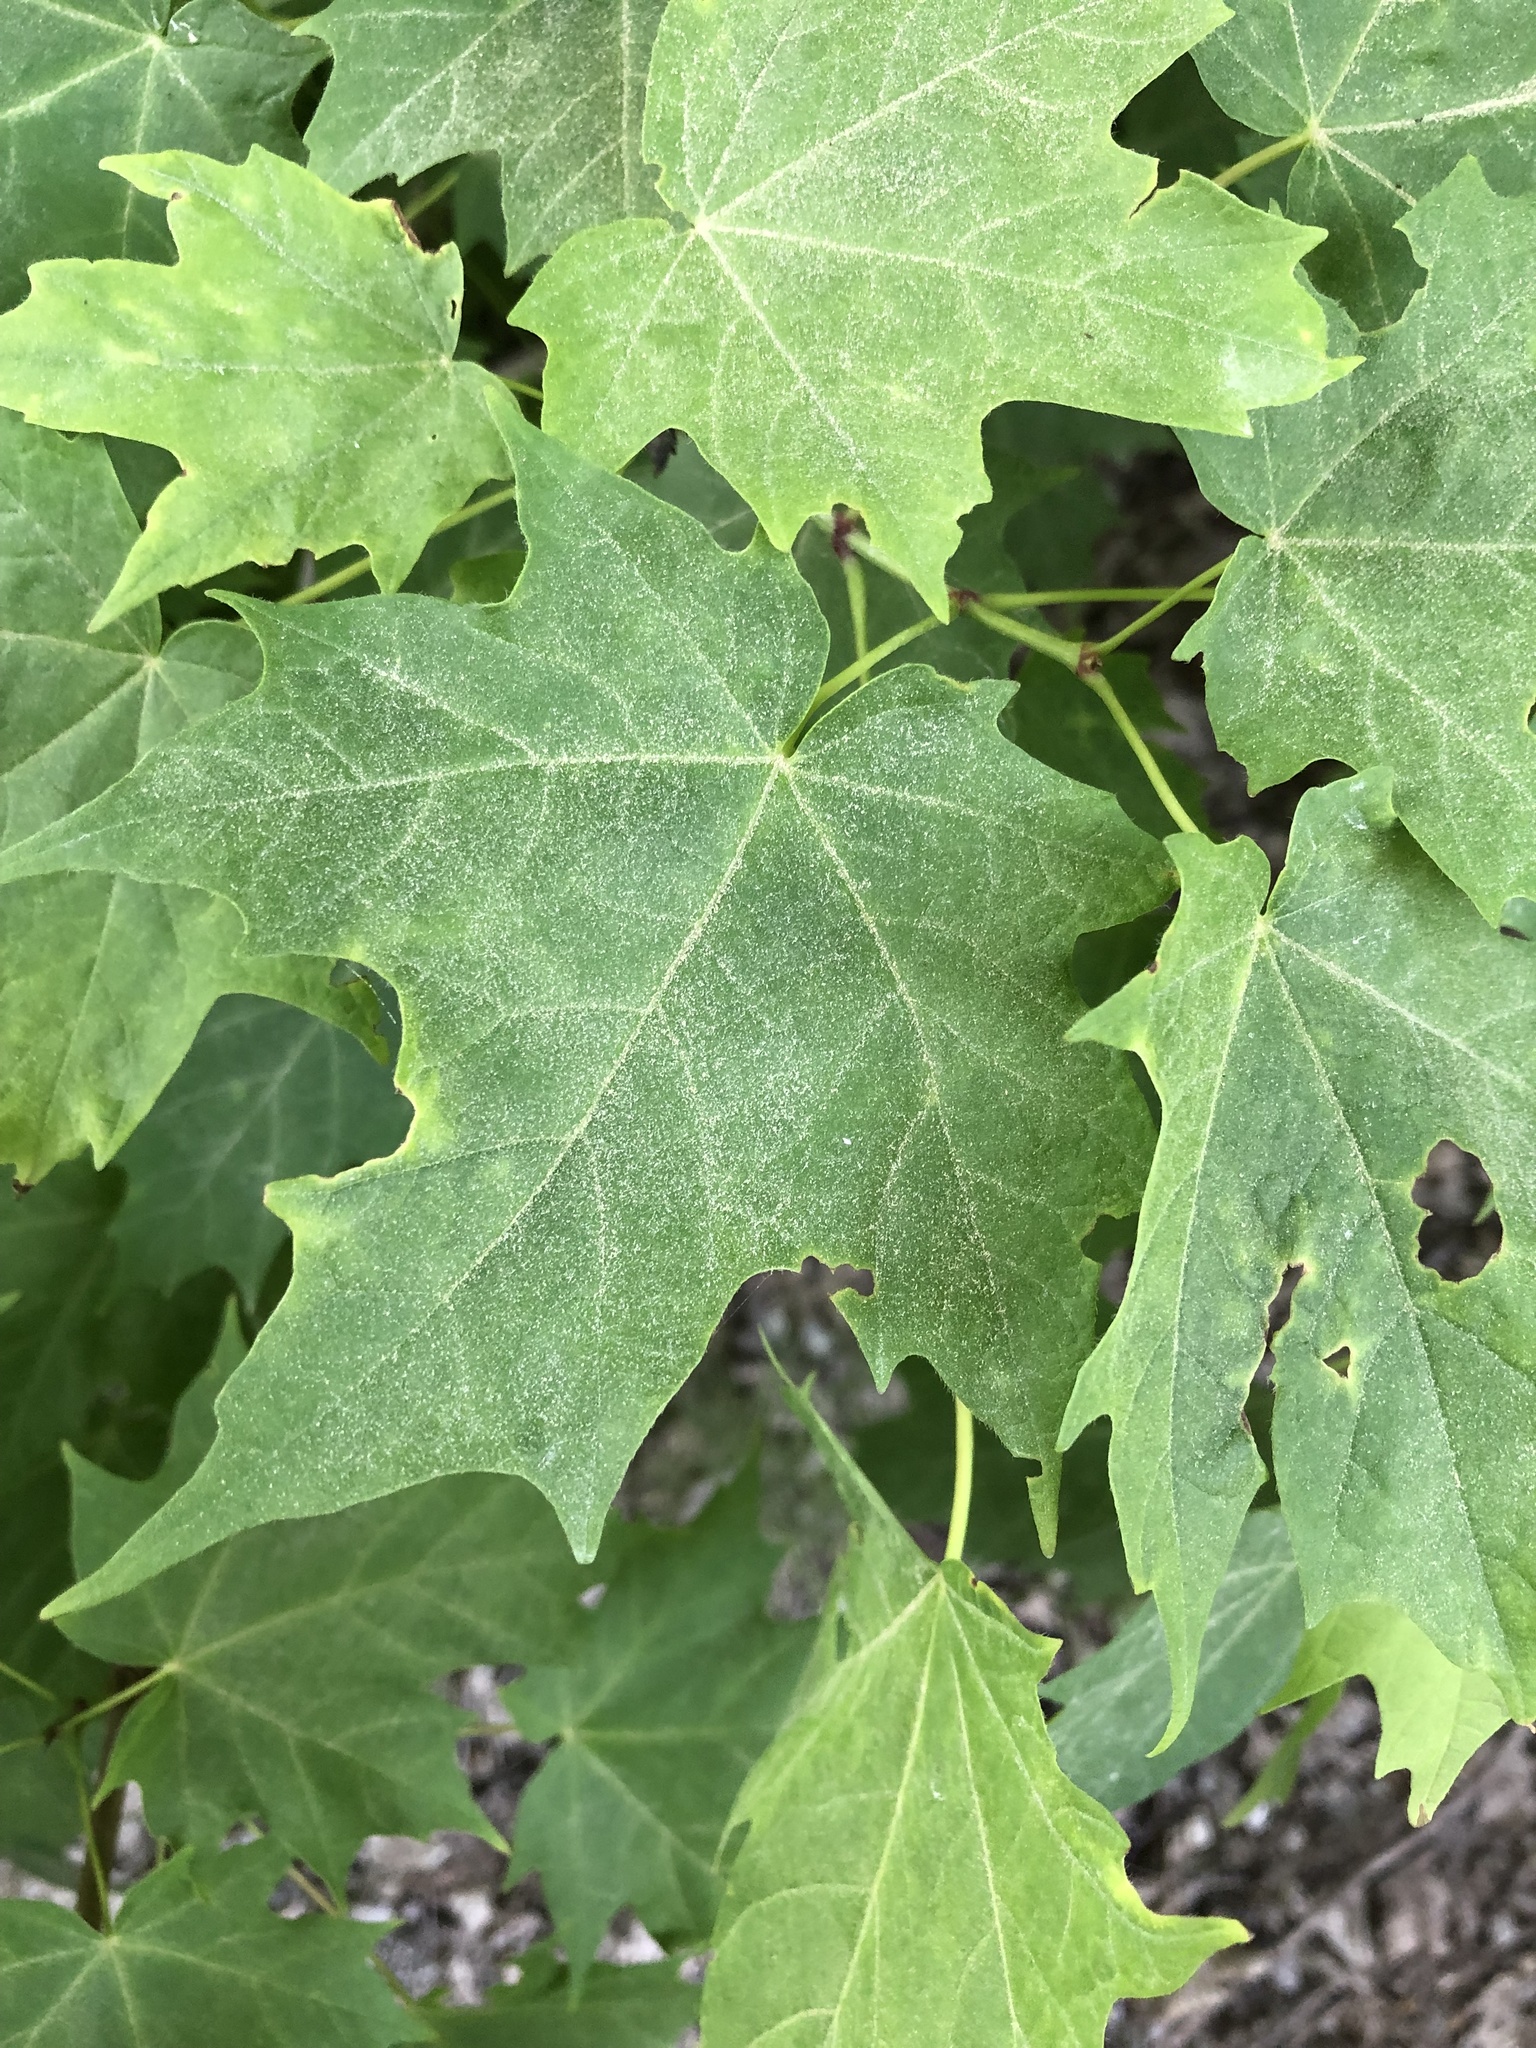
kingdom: Plantae
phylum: Tracheophyta
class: Magnoliopsida
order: Sapindales
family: Sapindaceae
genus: Acer
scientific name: Acer saccharum
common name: Sugar maple
